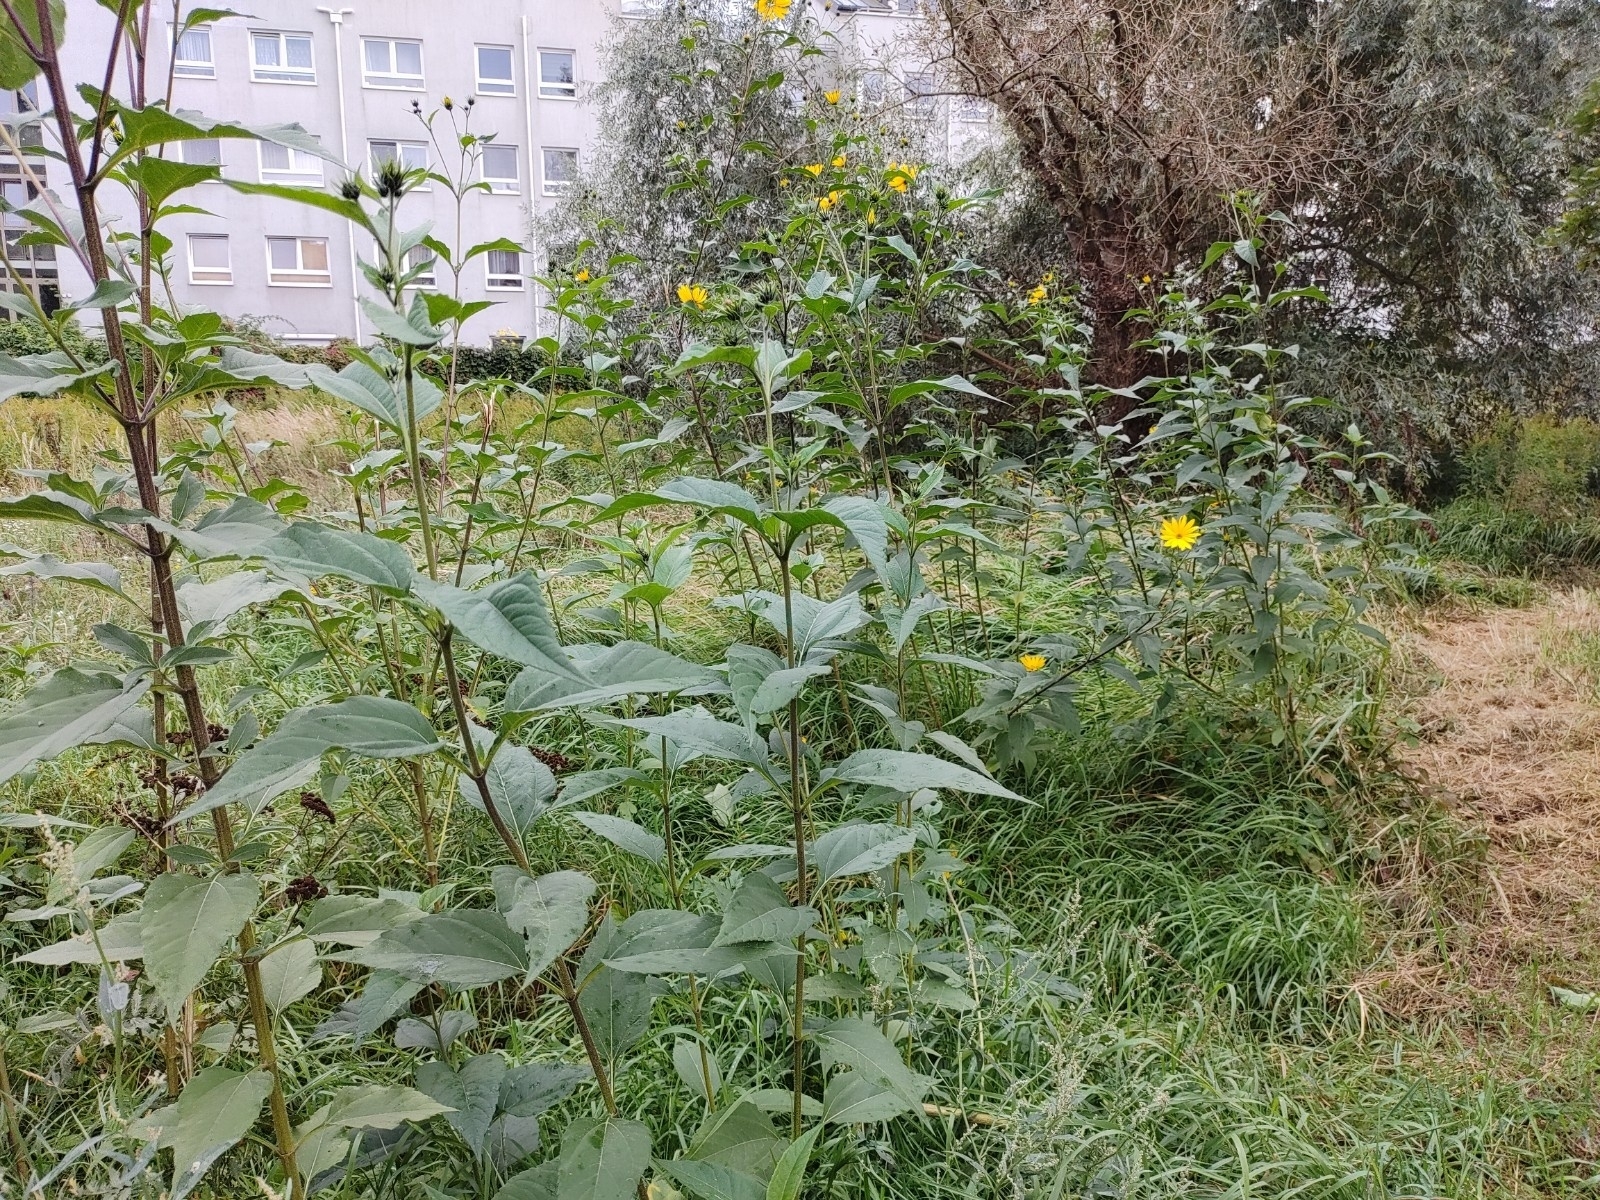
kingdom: Plantae
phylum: Tracheophyta
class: Magnoliopsida
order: Asterales
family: Asteraceae
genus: Helianthus
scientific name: Helianthus tuberosus
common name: Jerusalem artichoke
